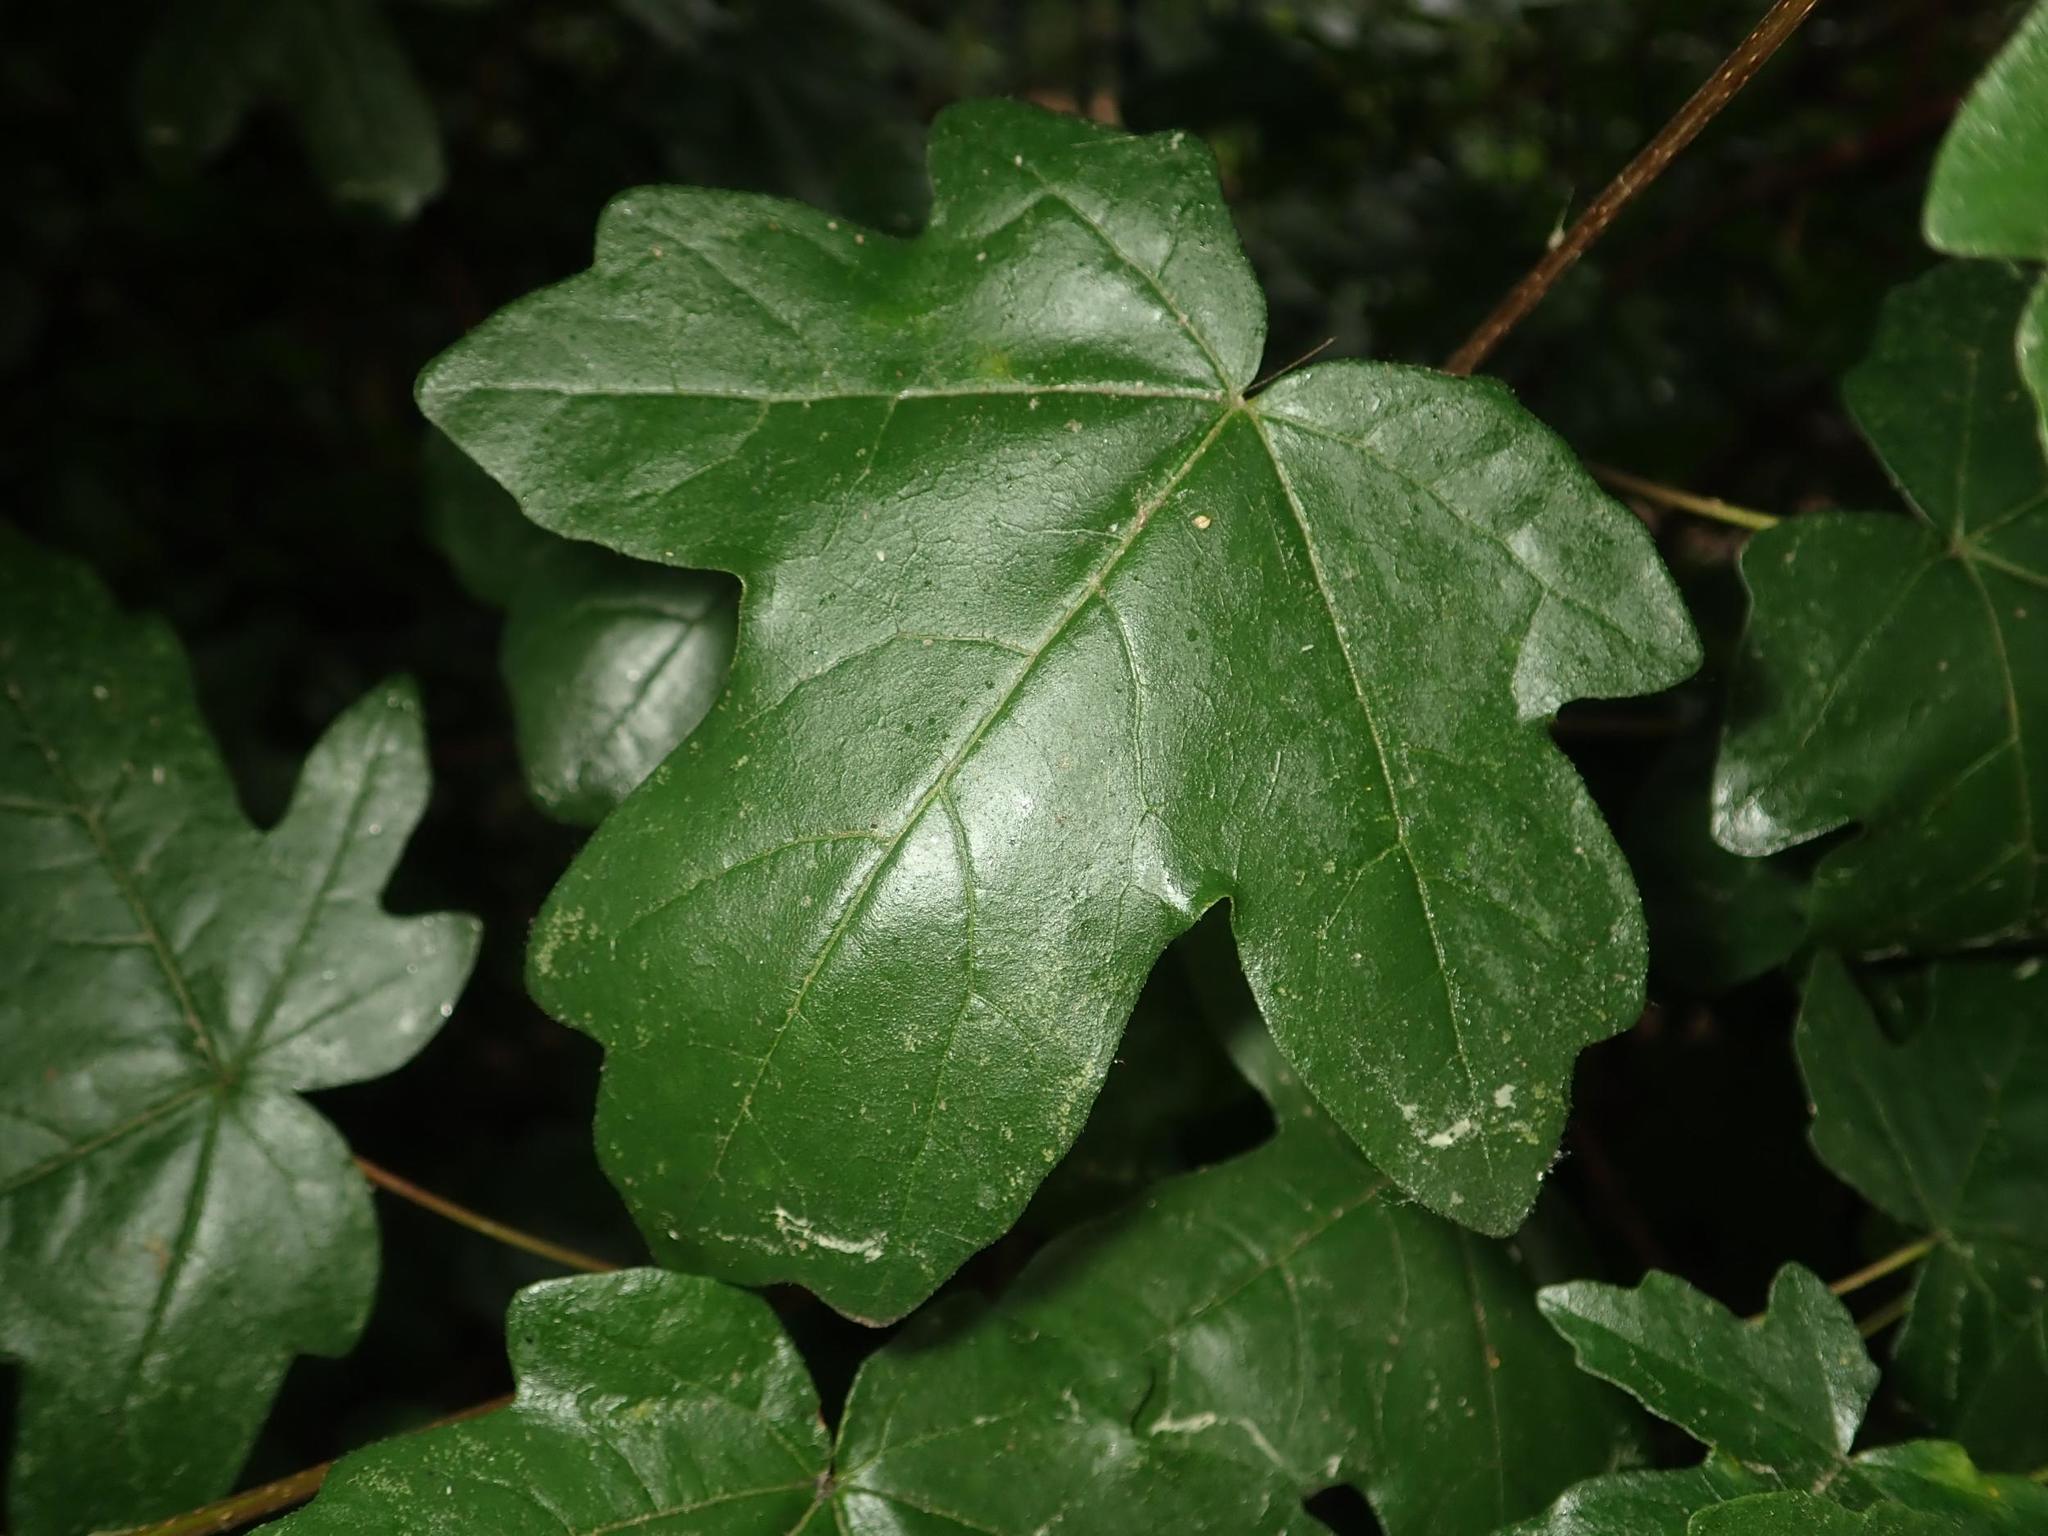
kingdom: Plantae
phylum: Tracheophyta
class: Magnoliopsida
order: Sapindales
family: Sapindaceae
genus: Acer
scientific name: Acer campestre
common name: Field maple
